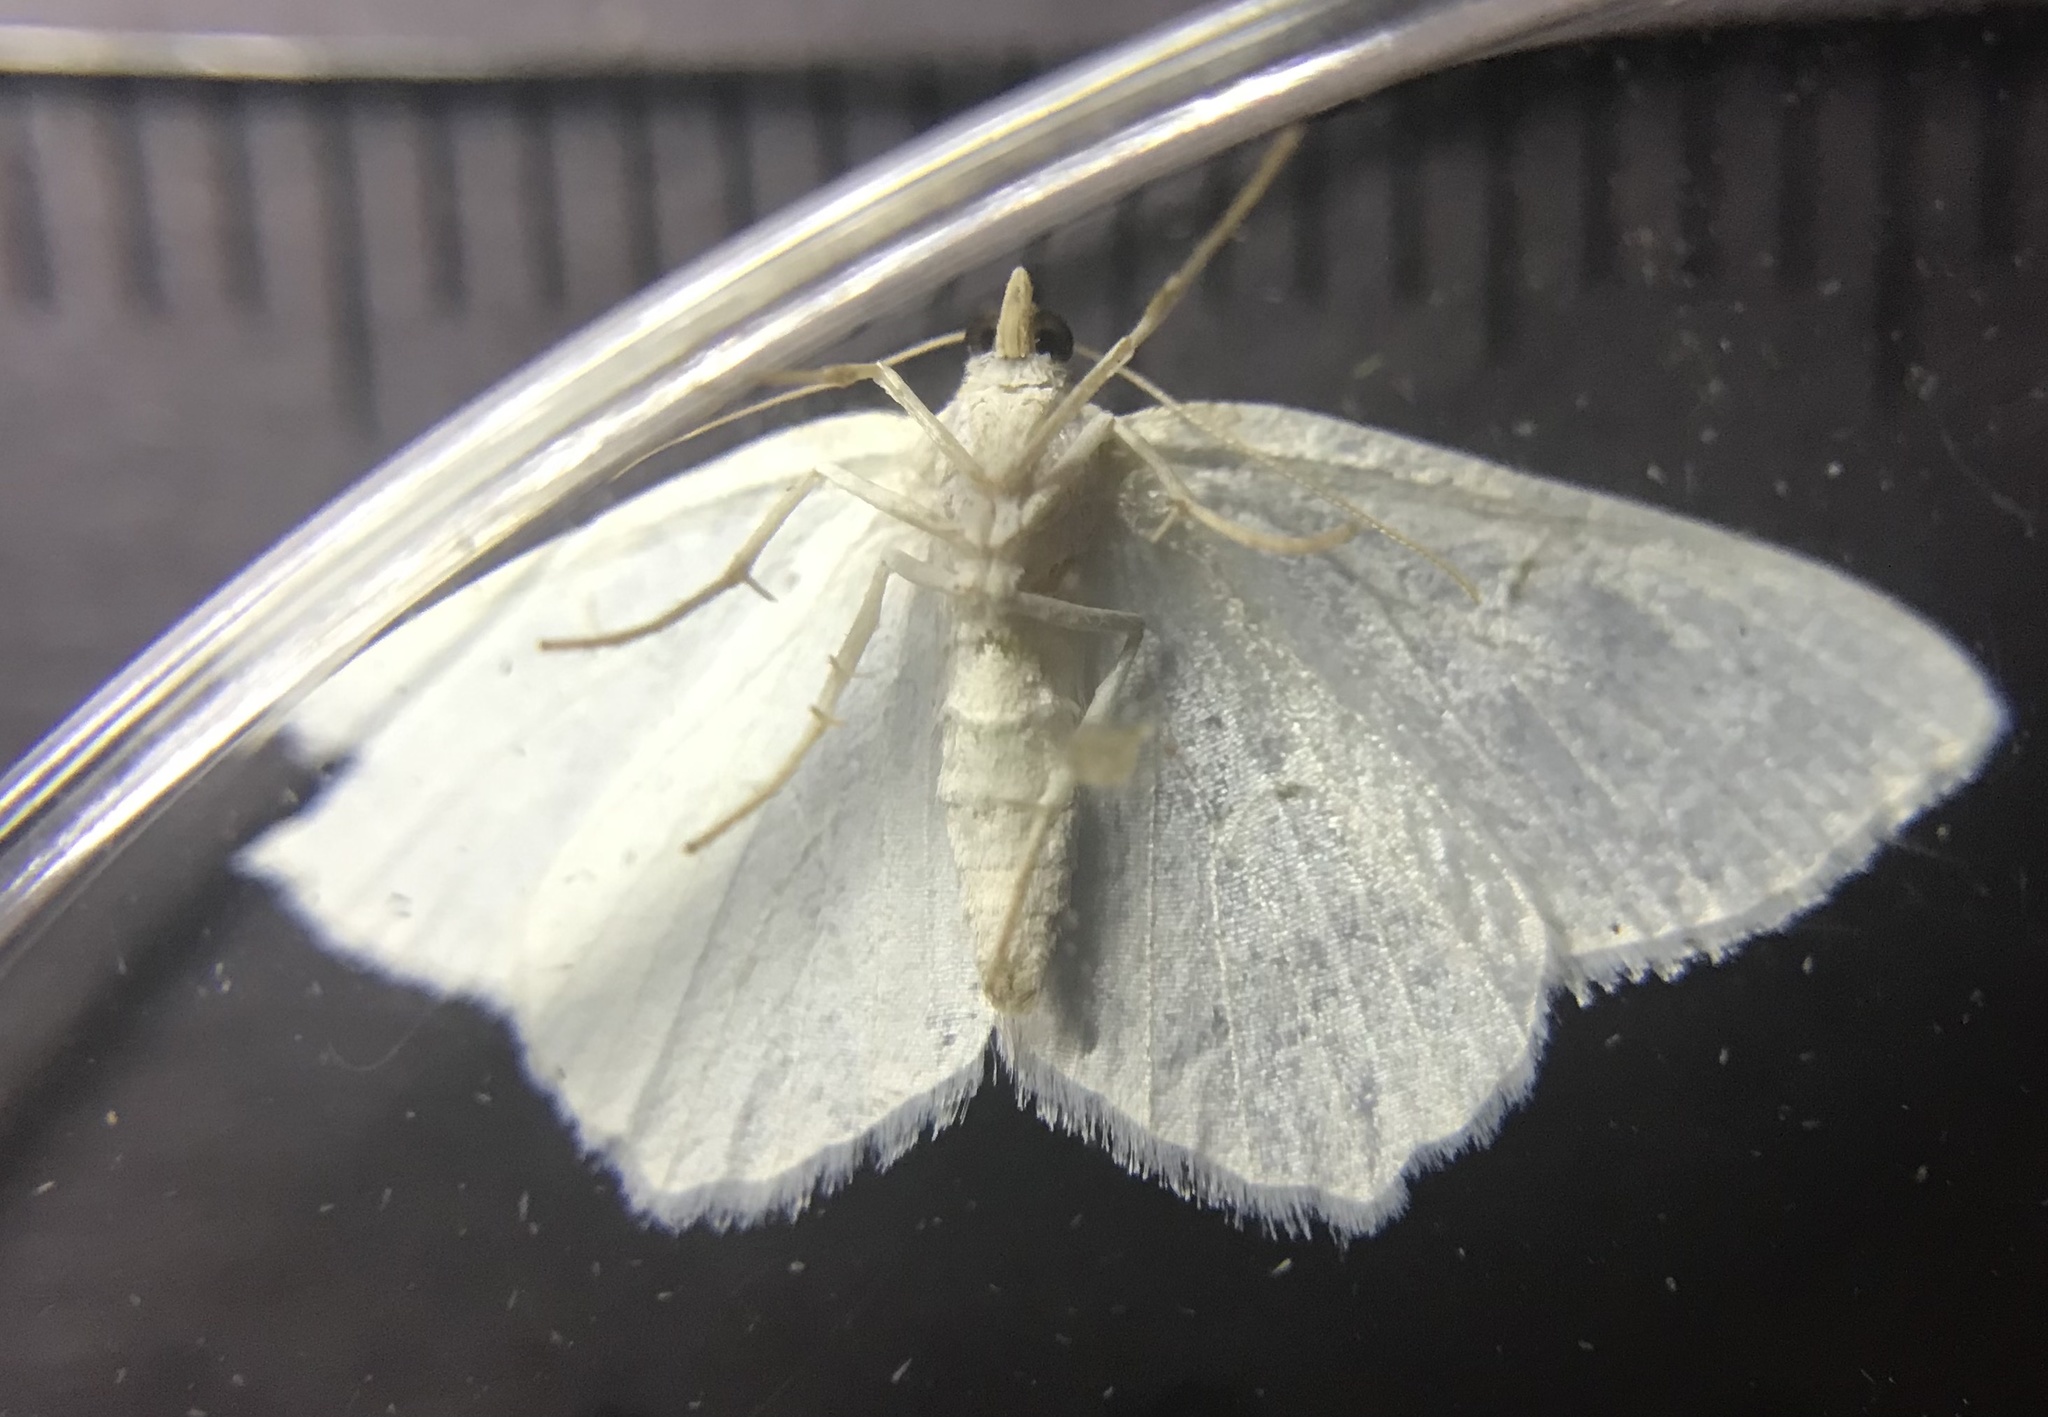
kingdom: Animalia
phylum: Arthropoda
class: Insecta
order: Lepidoptera
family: Geometridae
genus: Macaria
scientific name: Macaria pustularia
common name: Lesser maple spanworm moth
